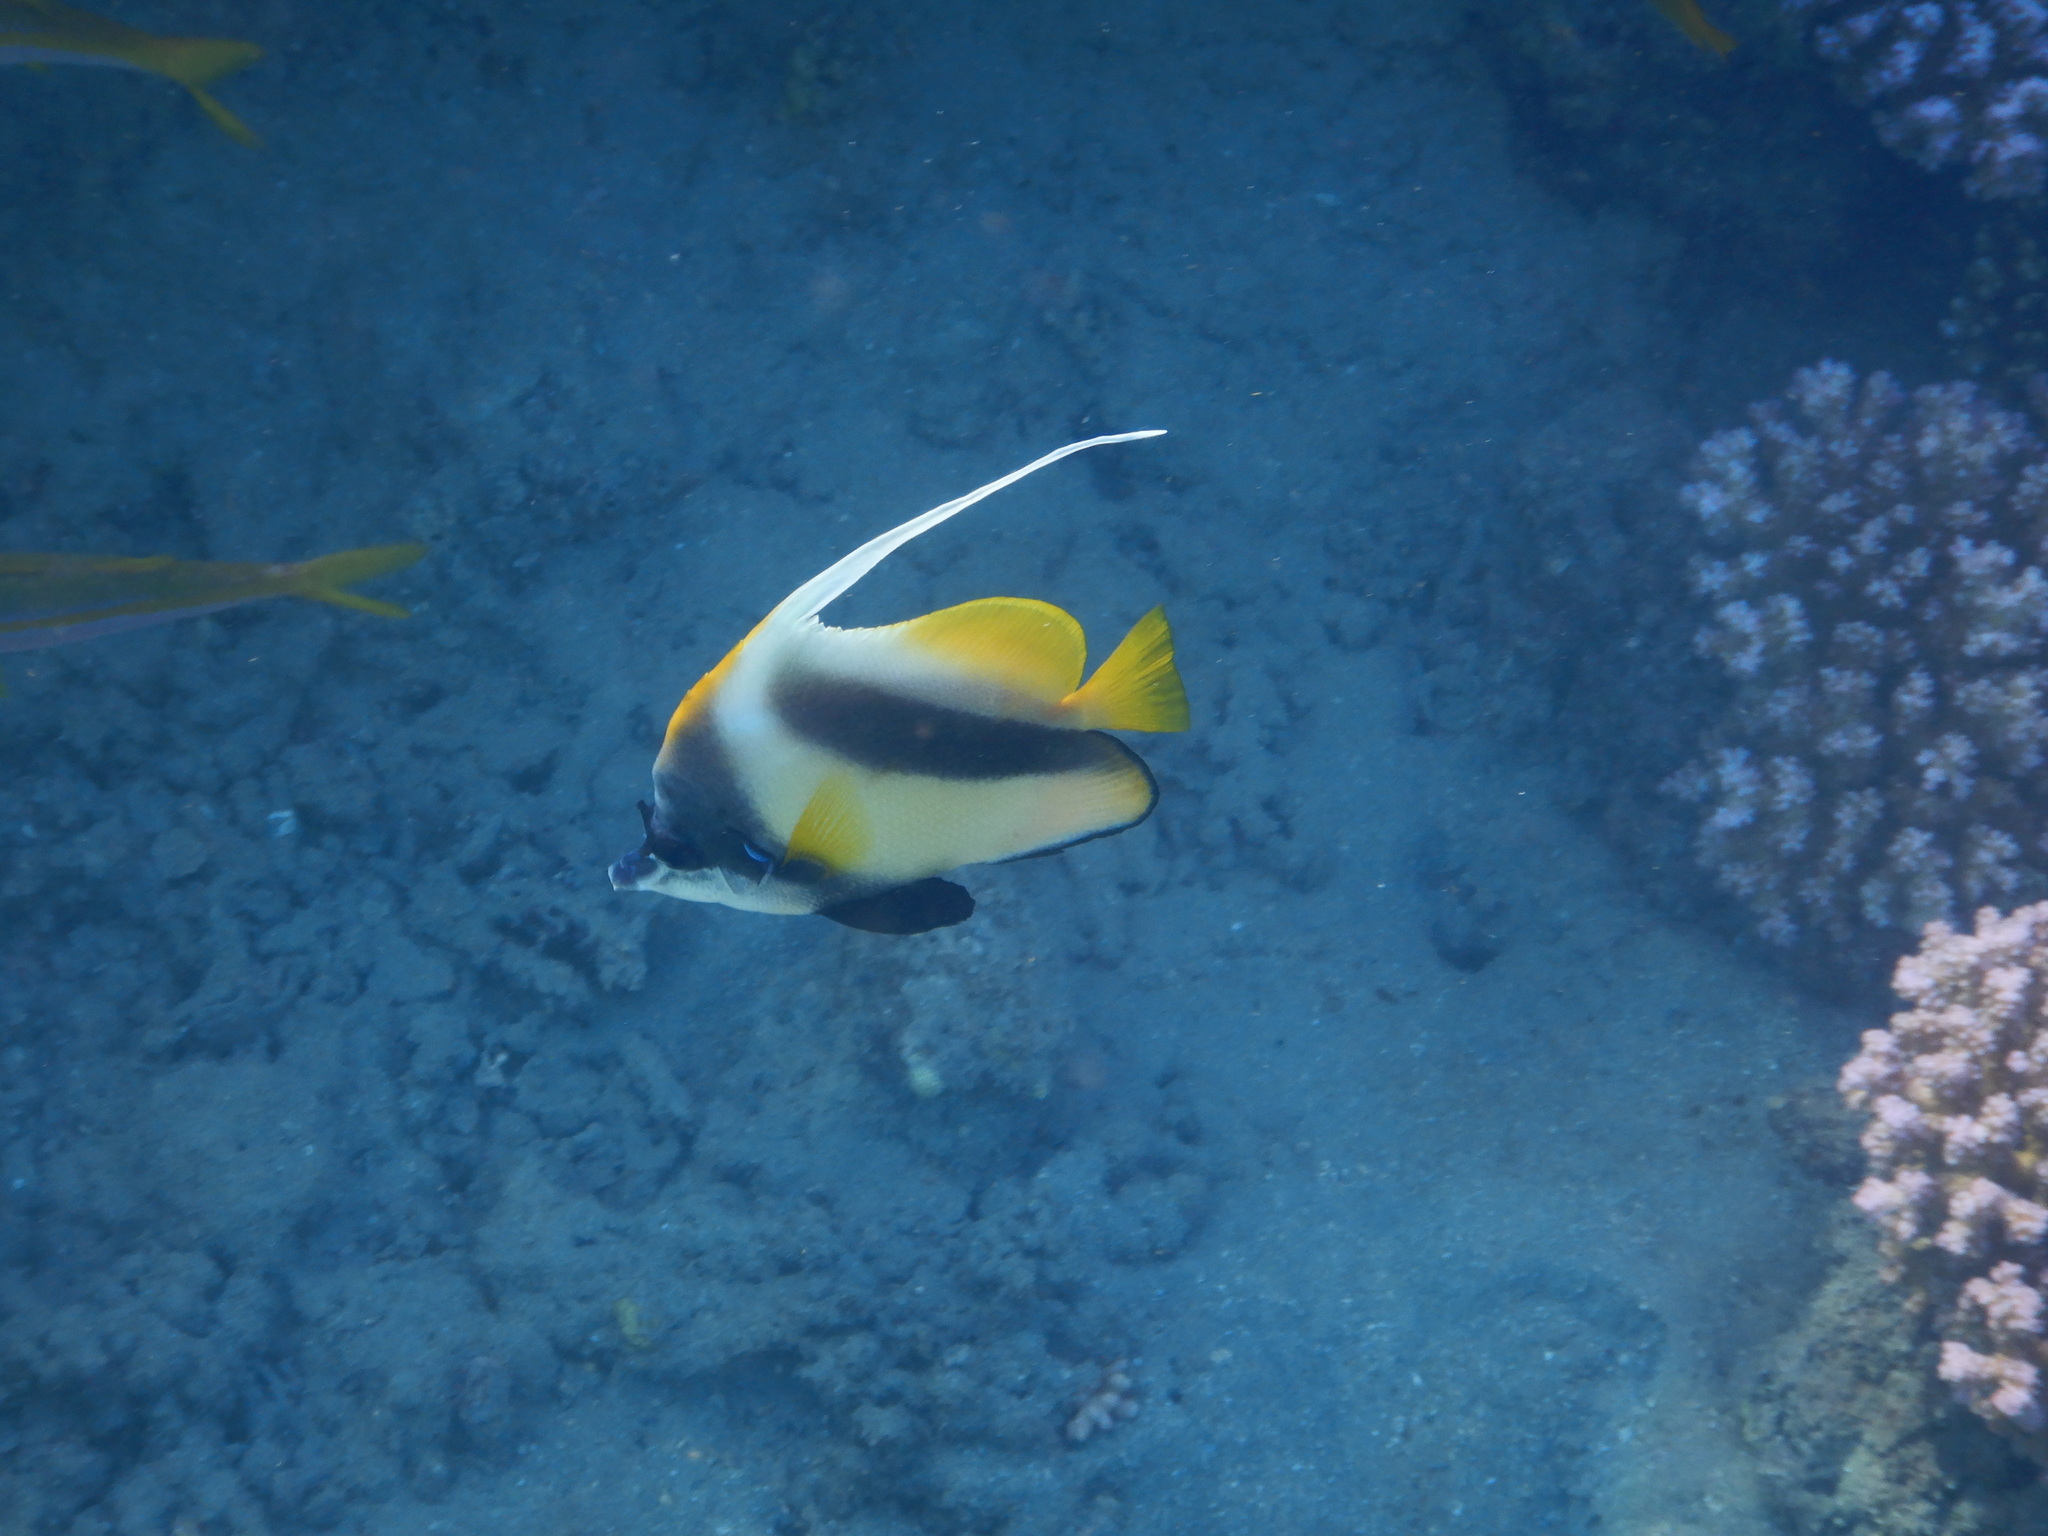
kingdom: Animalia
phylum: Chordata
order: Perciformes
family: Chaetodontidae
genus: Heniochus
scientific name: Heniochus intermedius
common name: Red sea bannerfish
